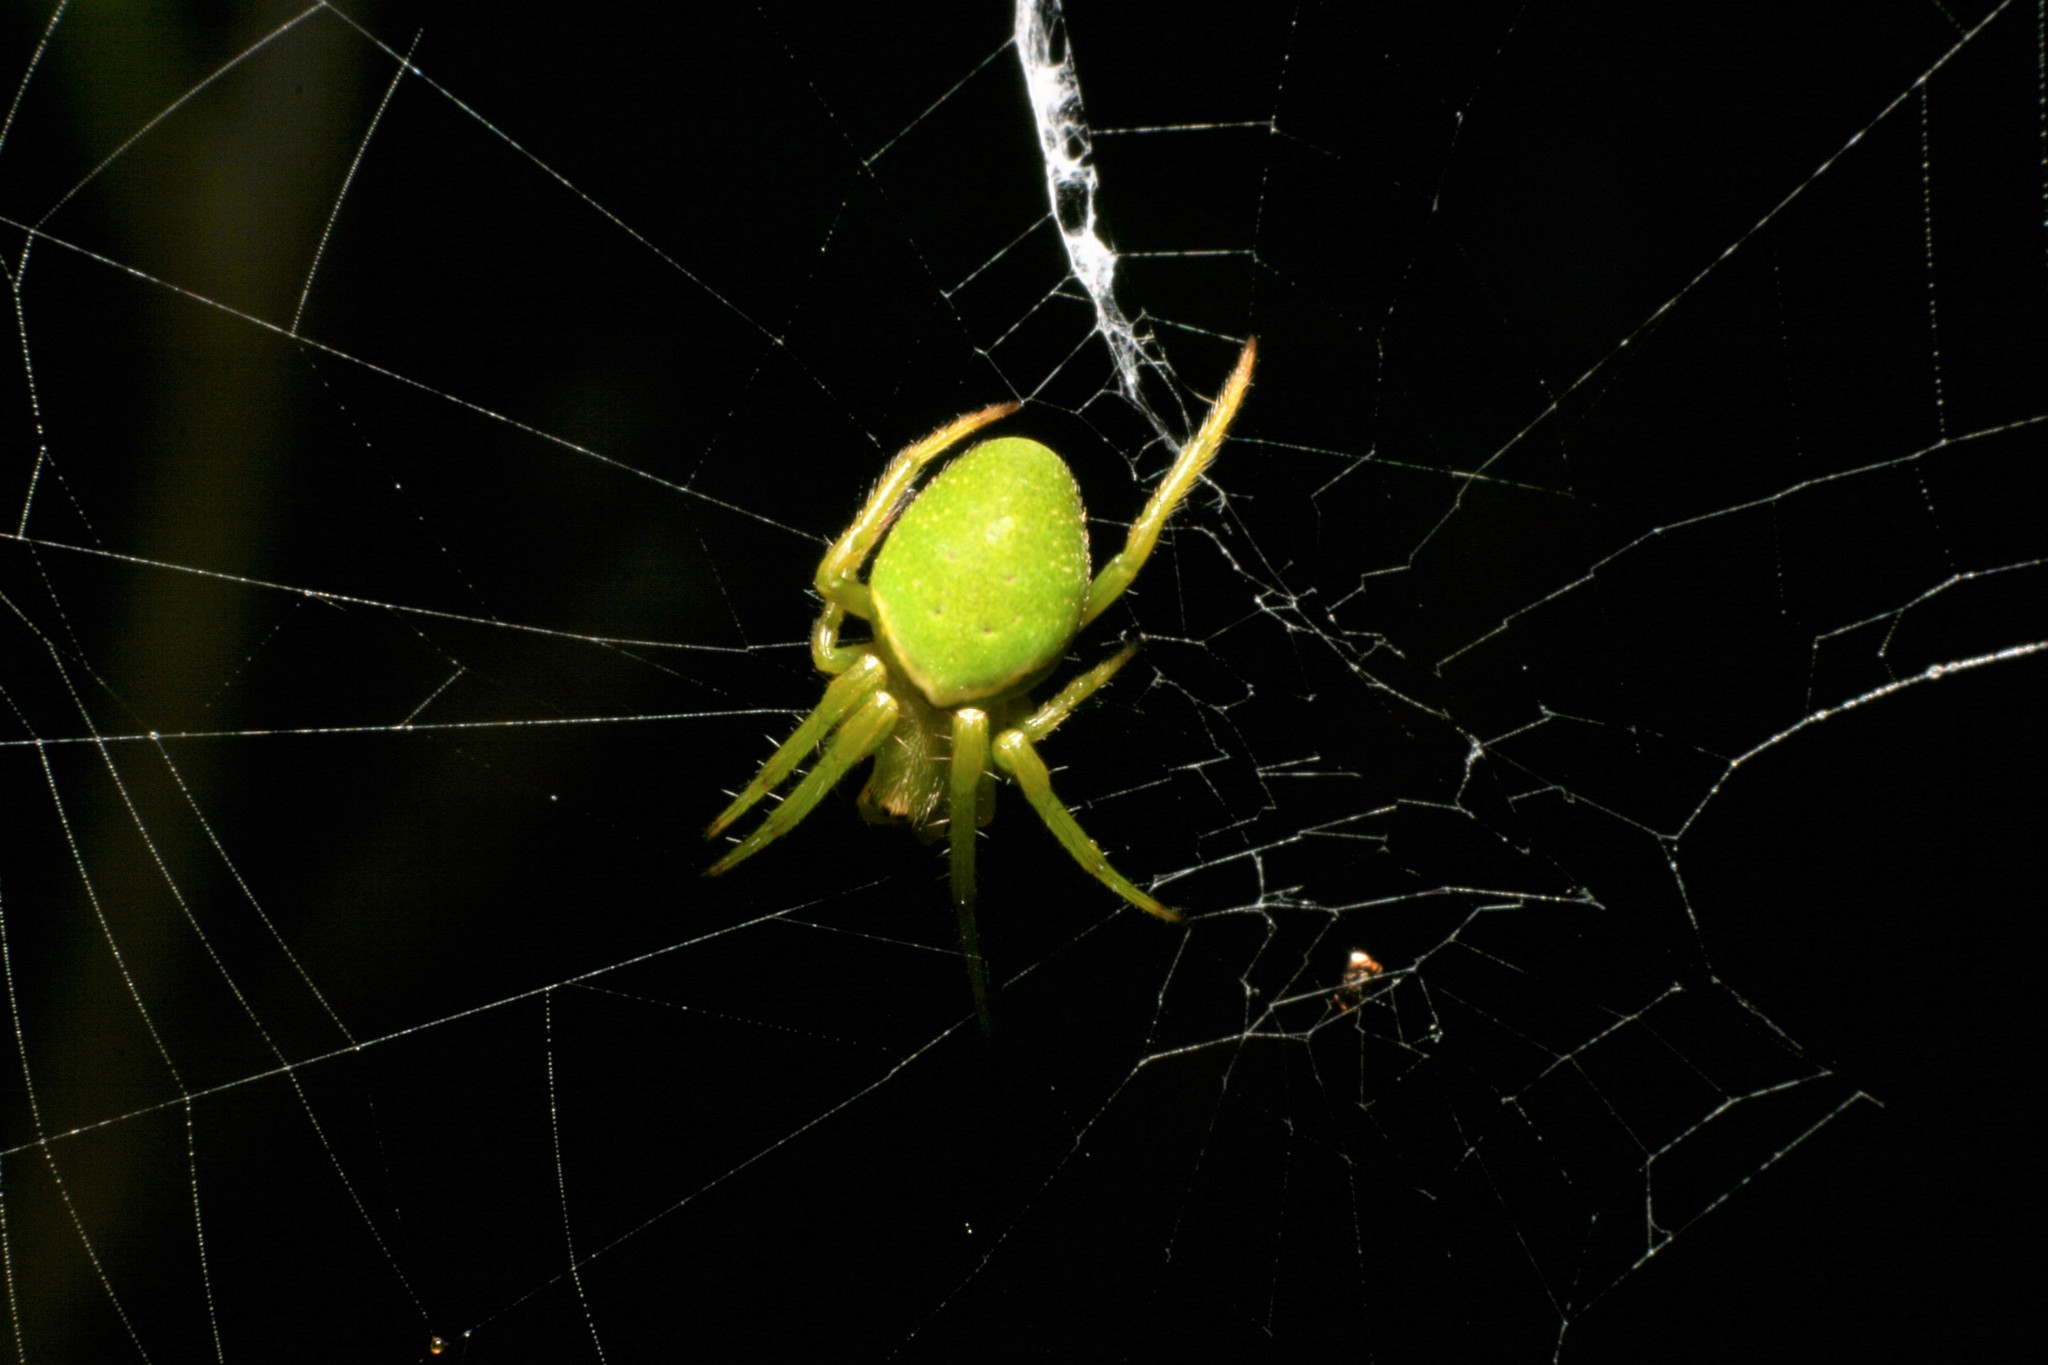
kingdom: Animalia
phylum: Arthropoda
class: Arachnida
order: Araneae
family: Araneidae
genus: Colaranea
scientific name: Colaranea viriditas
